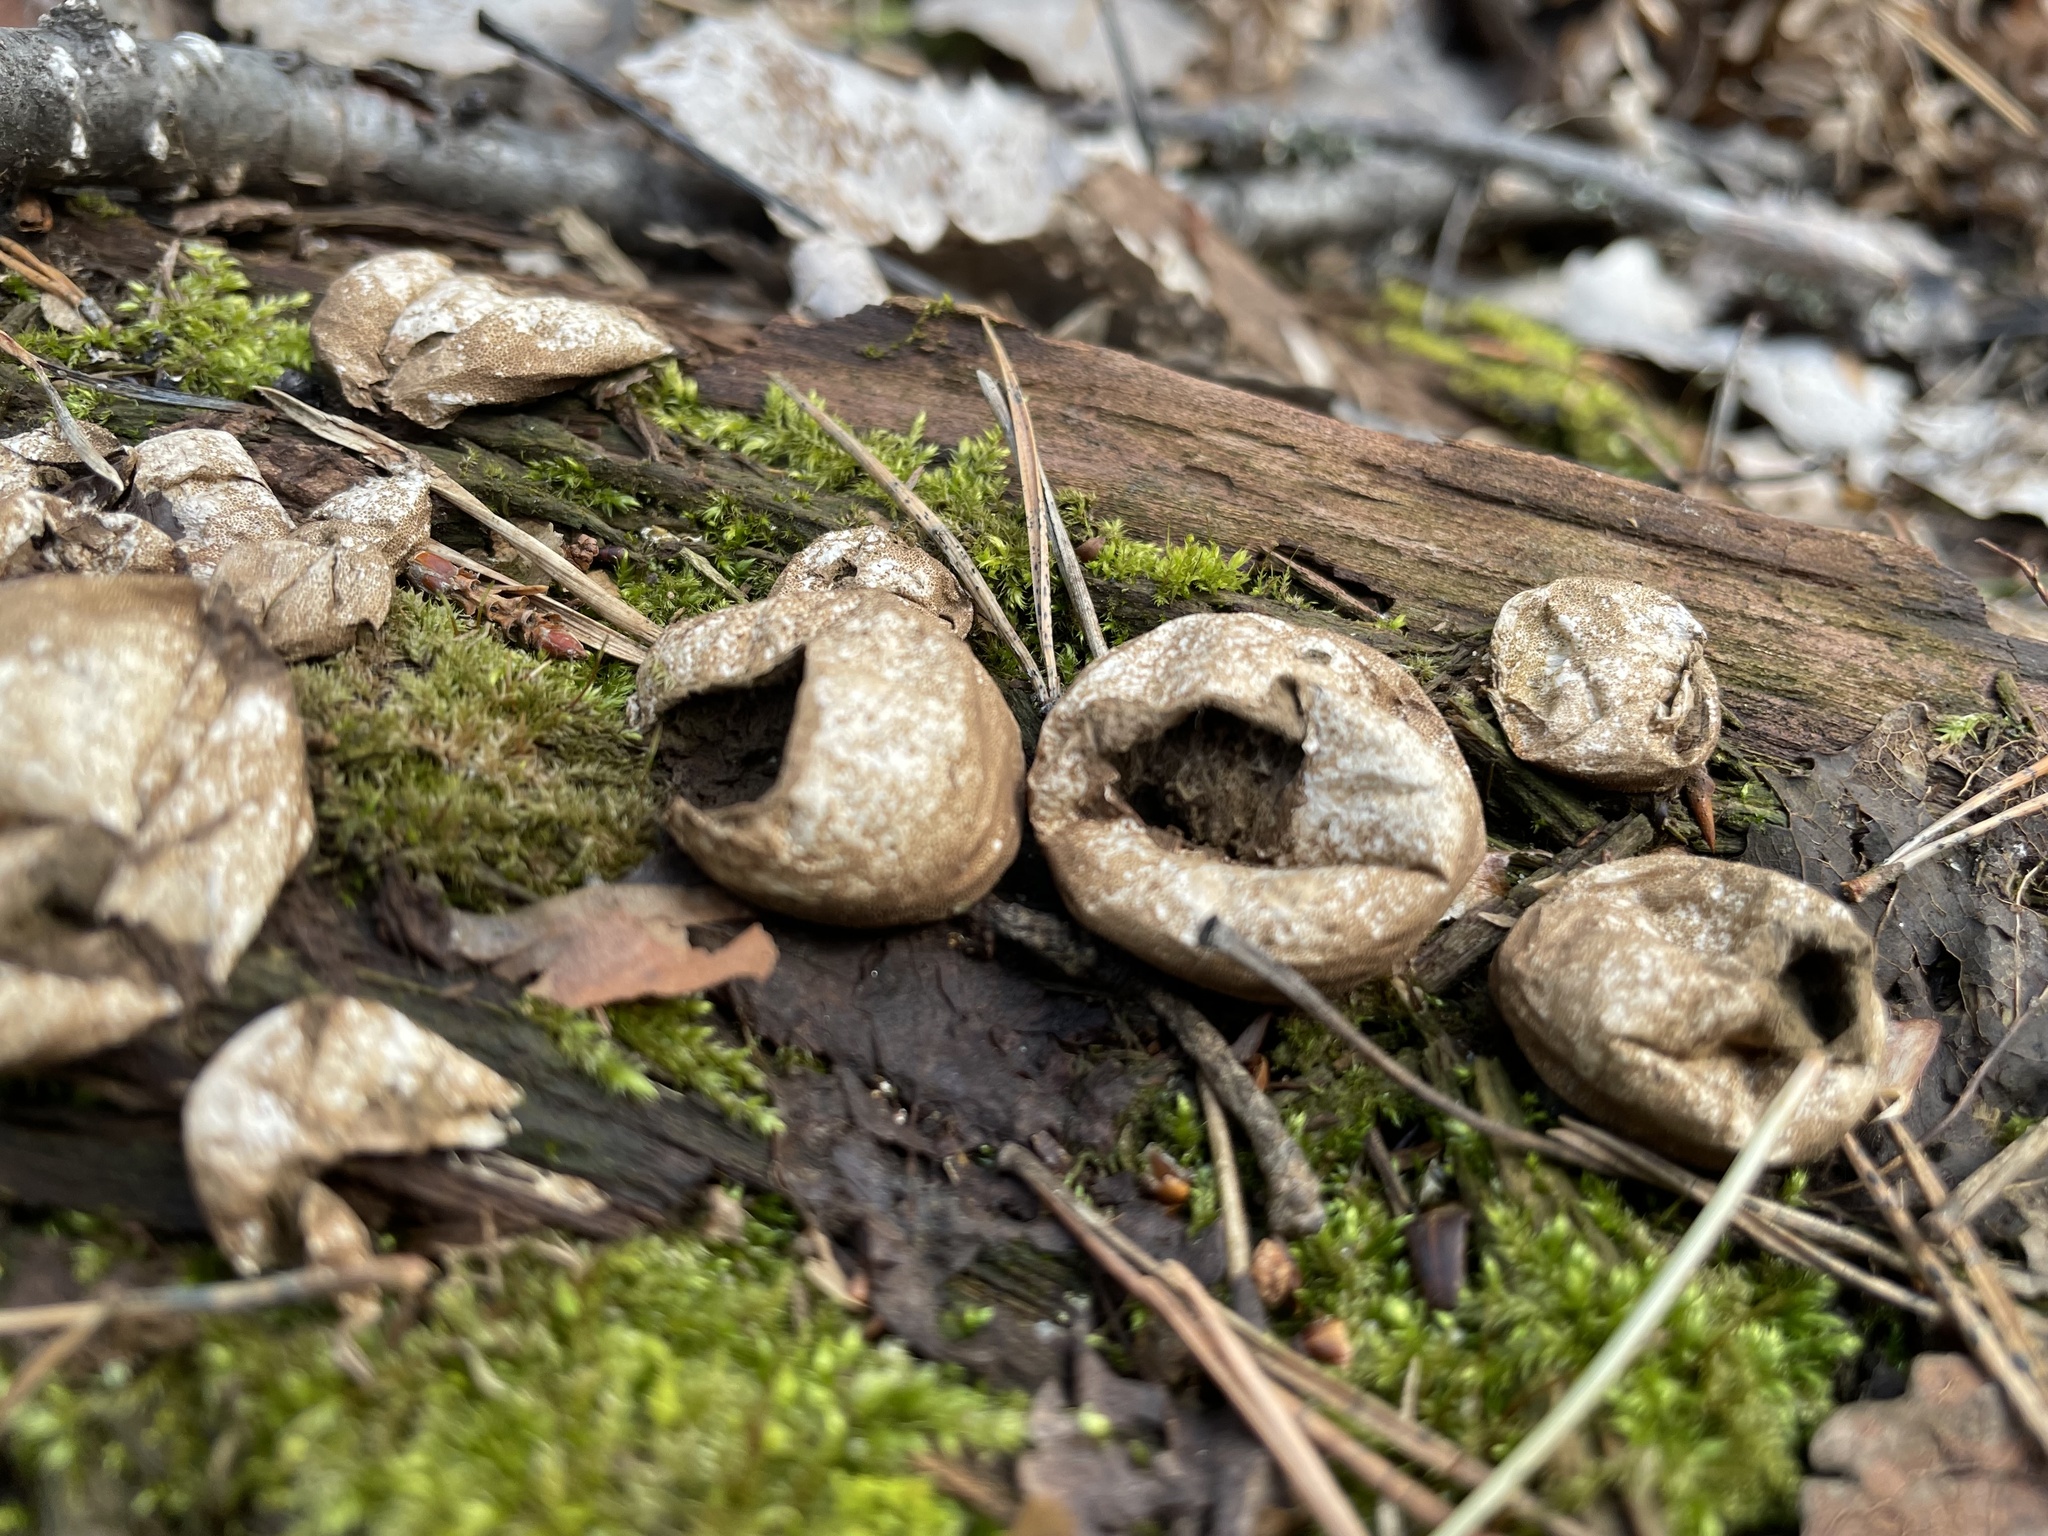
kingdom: Fungi
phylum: Basidiomycota
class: Agaricomycetes
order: Agaricales
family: Lycoperdaceae
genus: Apioperdon
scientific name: Apioperdon pyriforme
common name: Pear-shaped puffball
